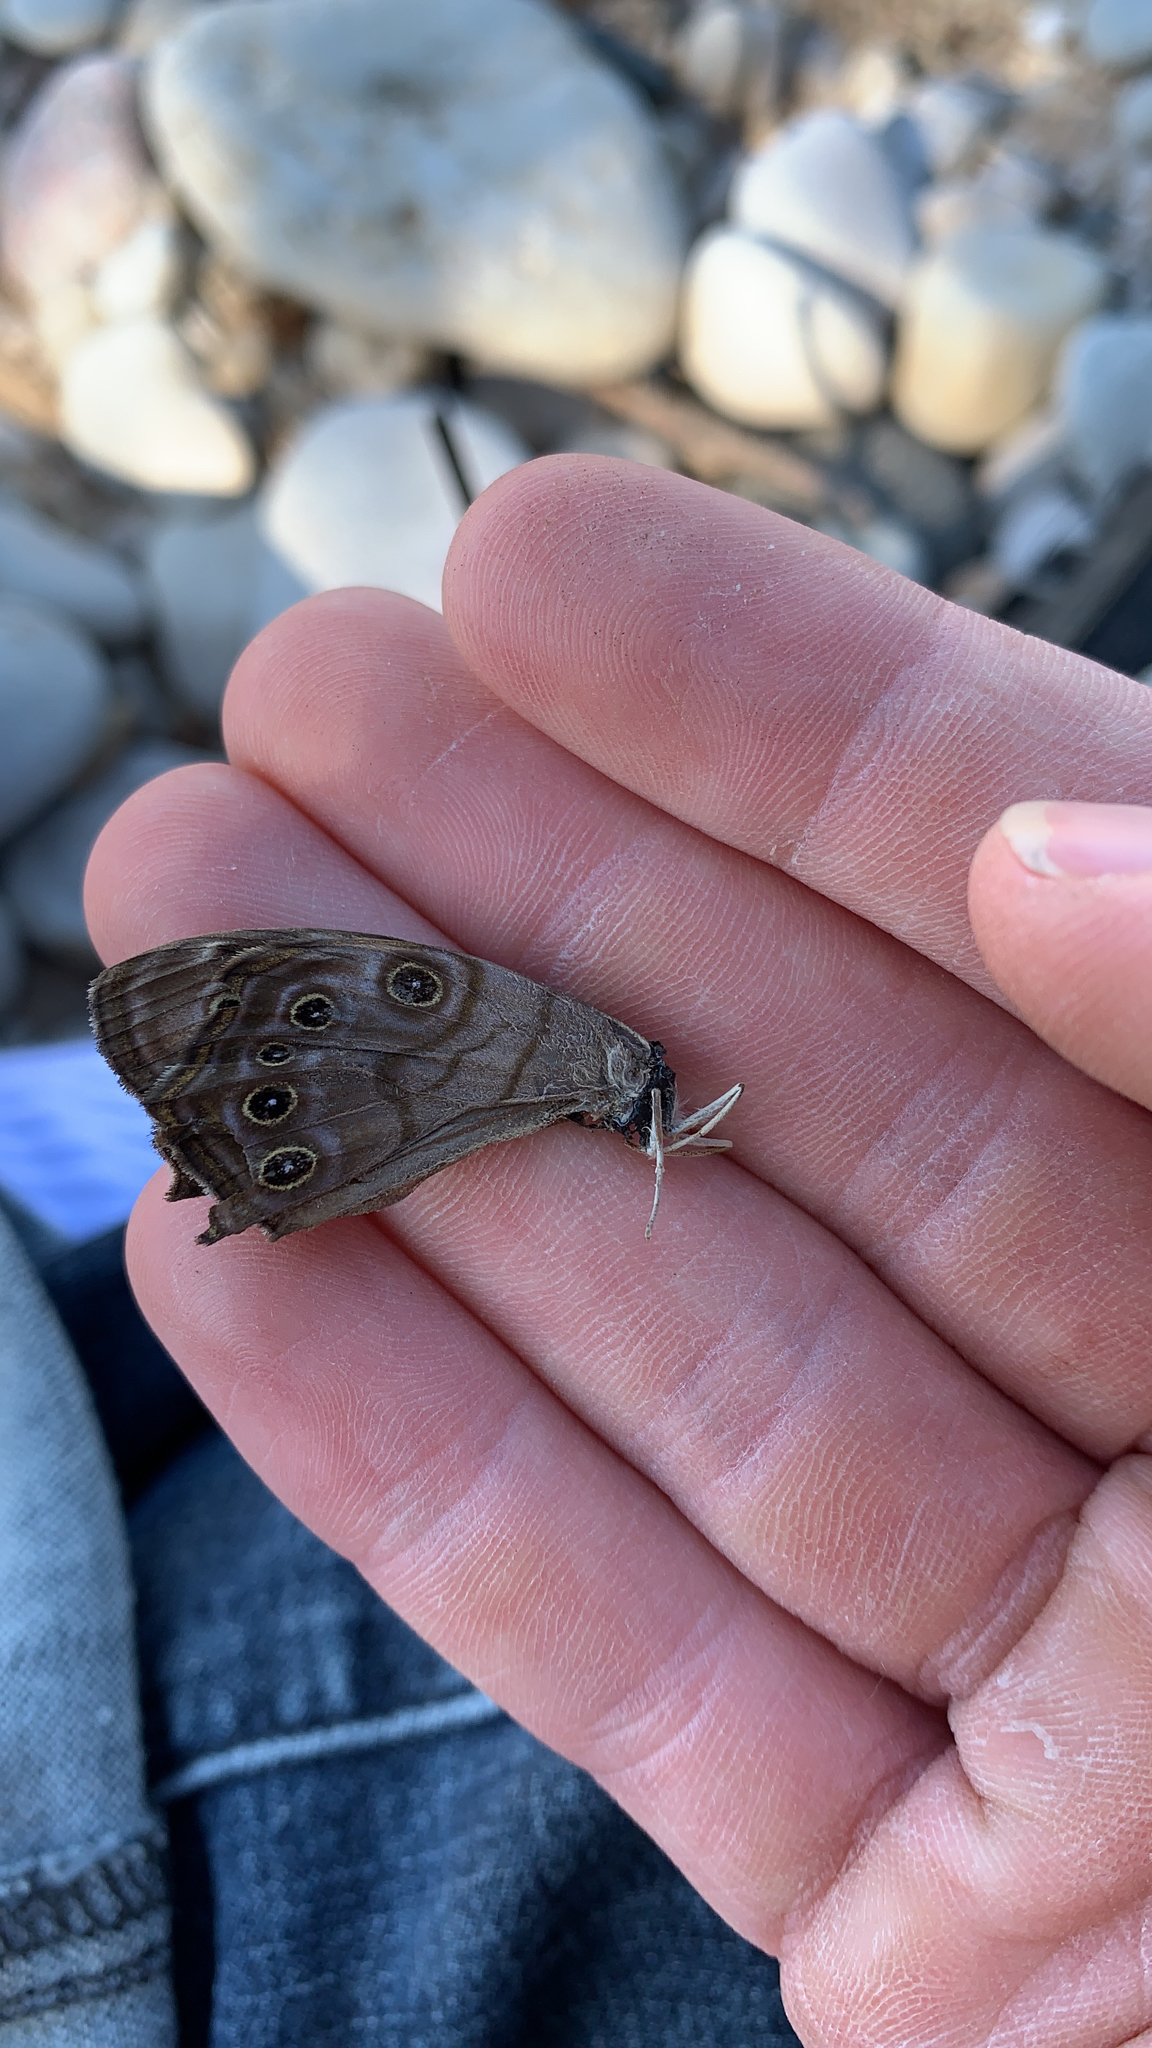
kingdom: Animalia
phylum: Arthropoda
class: Insecta
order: Lepidoptera
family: Nymphalidae
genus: Lethe
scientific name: Lethe anthedon
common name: Northern pearly-eye
